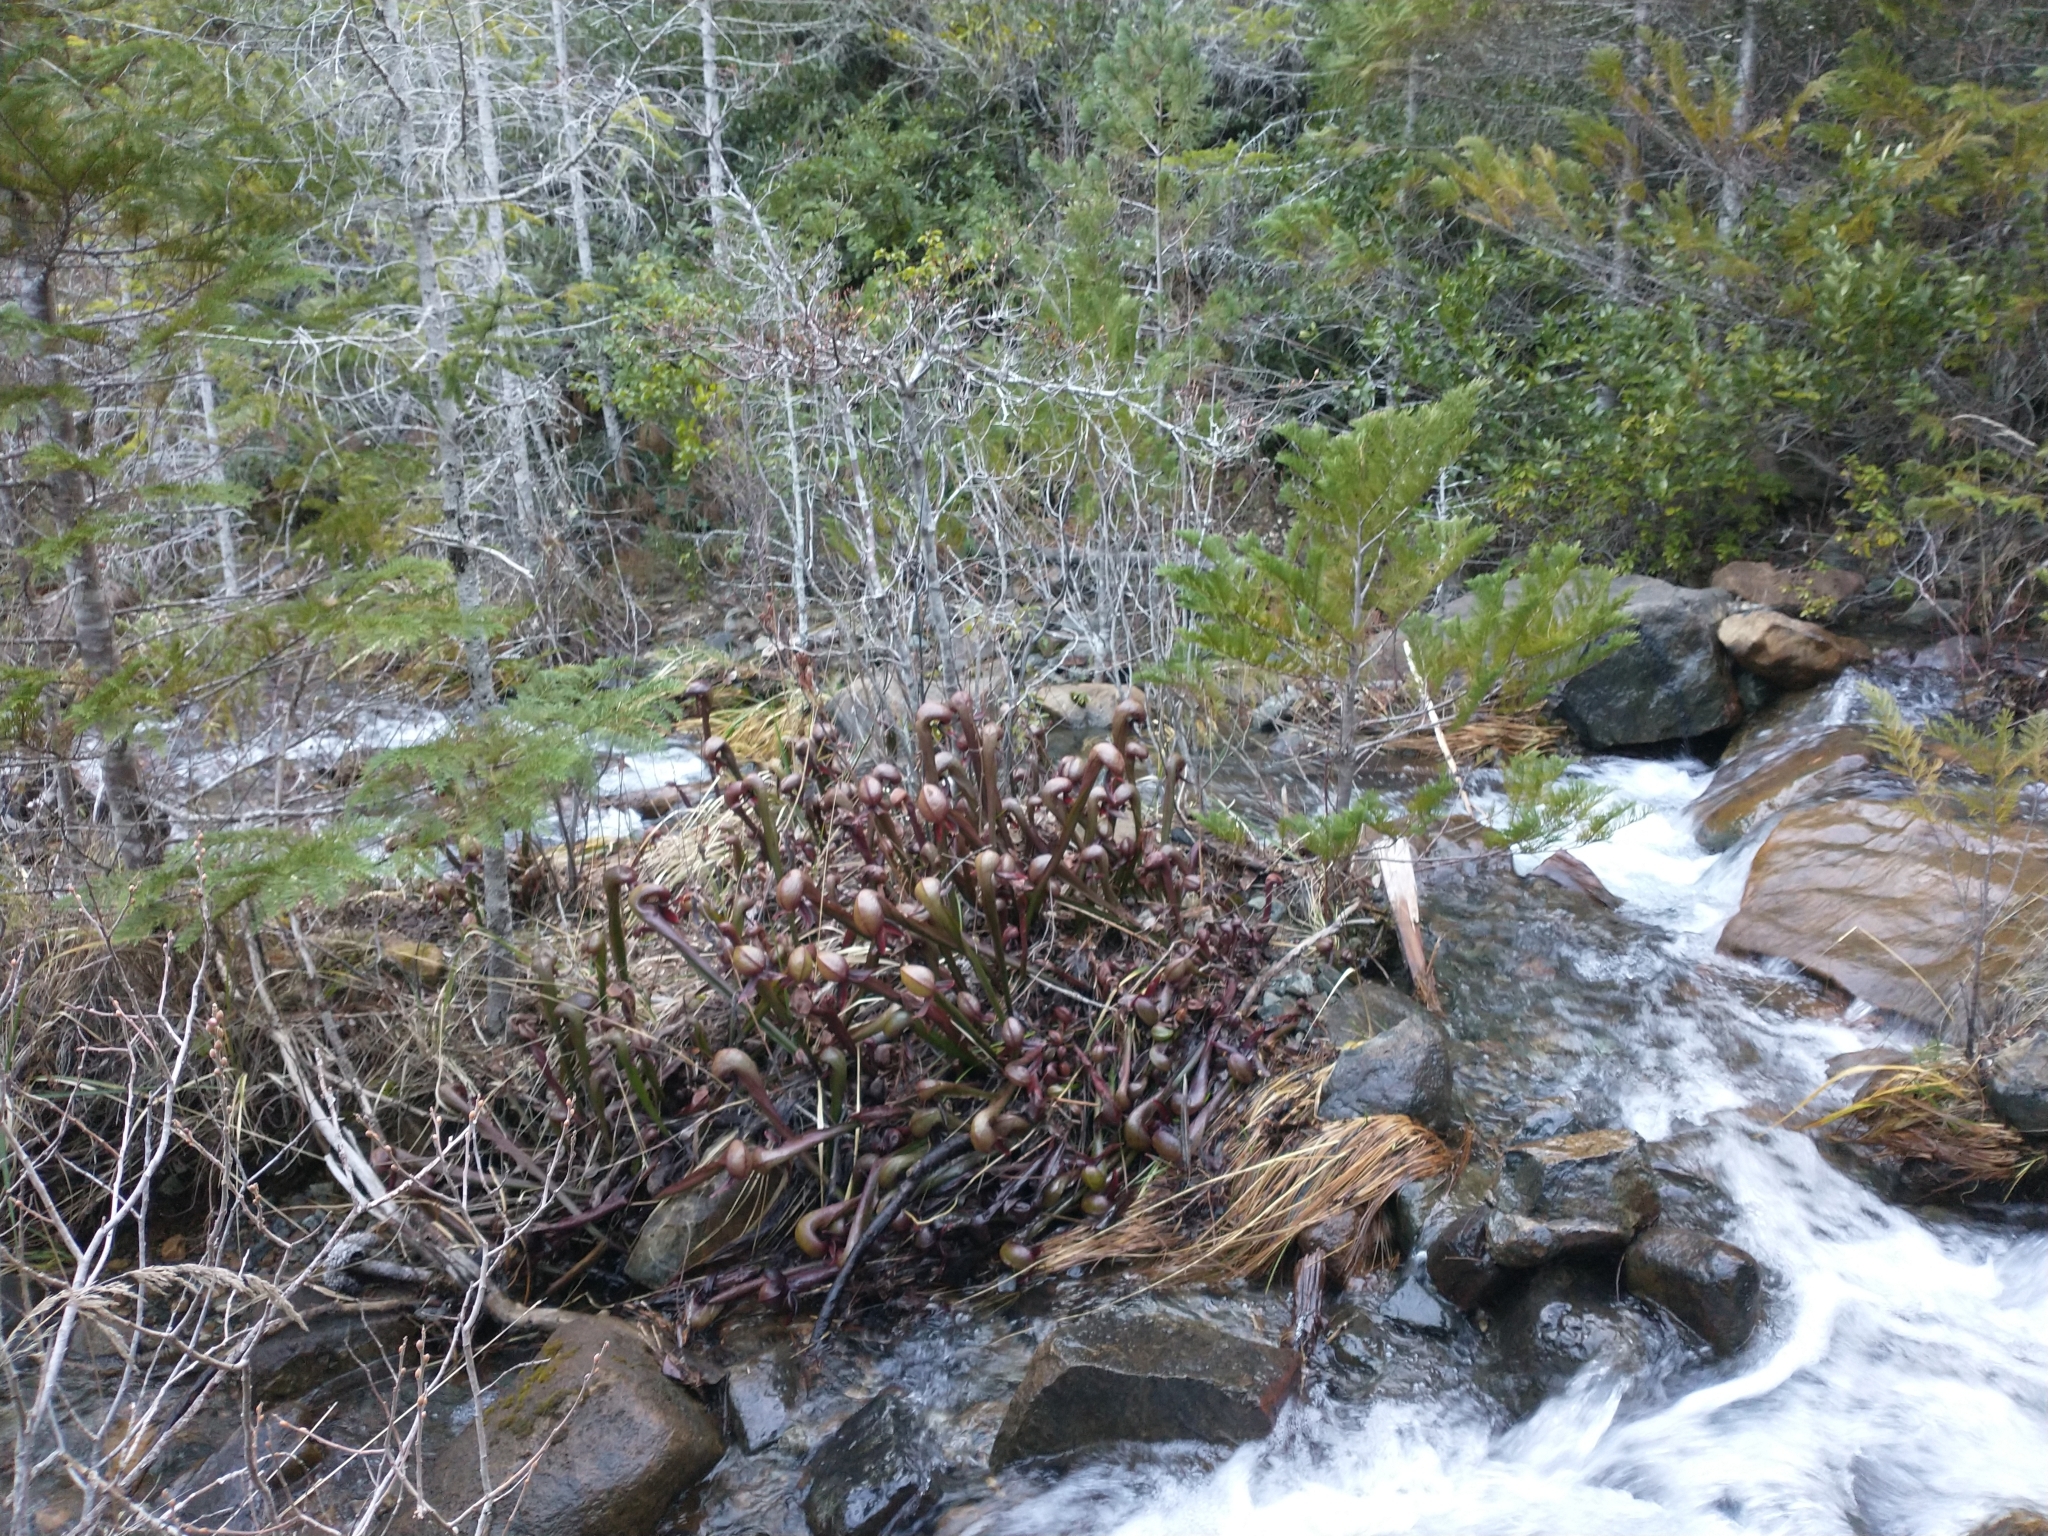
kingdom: Plantae
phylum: Tracheophyta
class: Magnoliopsida
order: Ericales
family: Sarraceniaceae
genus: Darlingtonia
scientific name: Darlingtonia californica
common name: California pitcher plant
